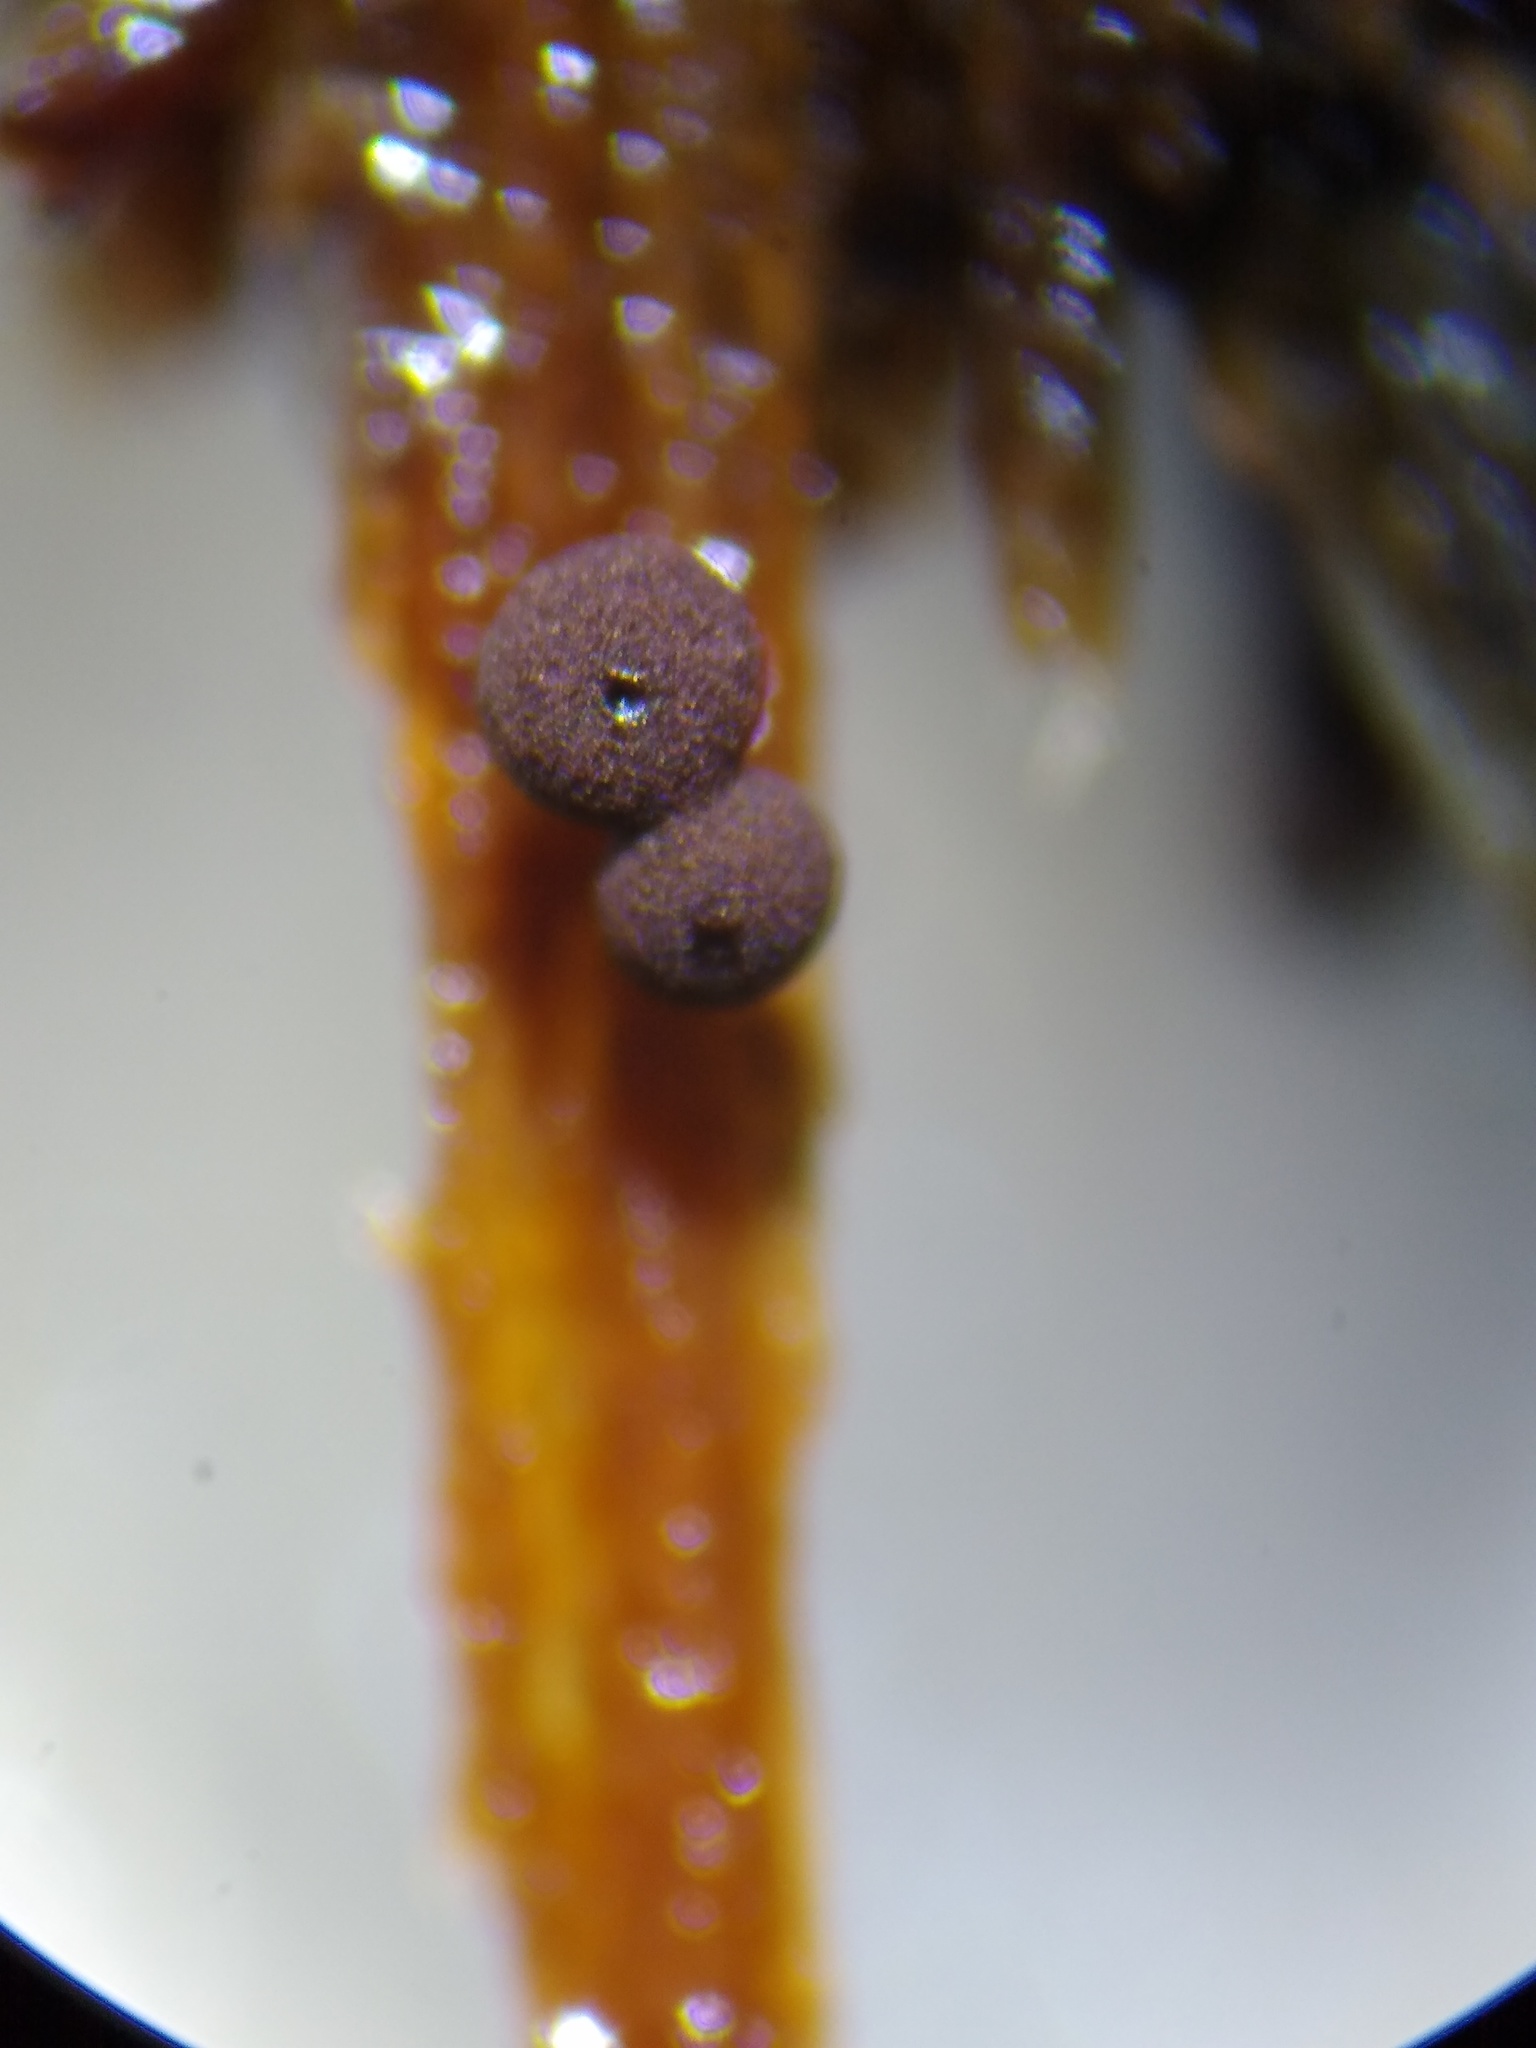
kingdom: Protozoa
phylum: Mycetozoa
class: Myxomycetes
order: Stemonitidales
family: Stemonitidaceae
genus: Enerthenema
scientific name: Enerthenema papillatum
